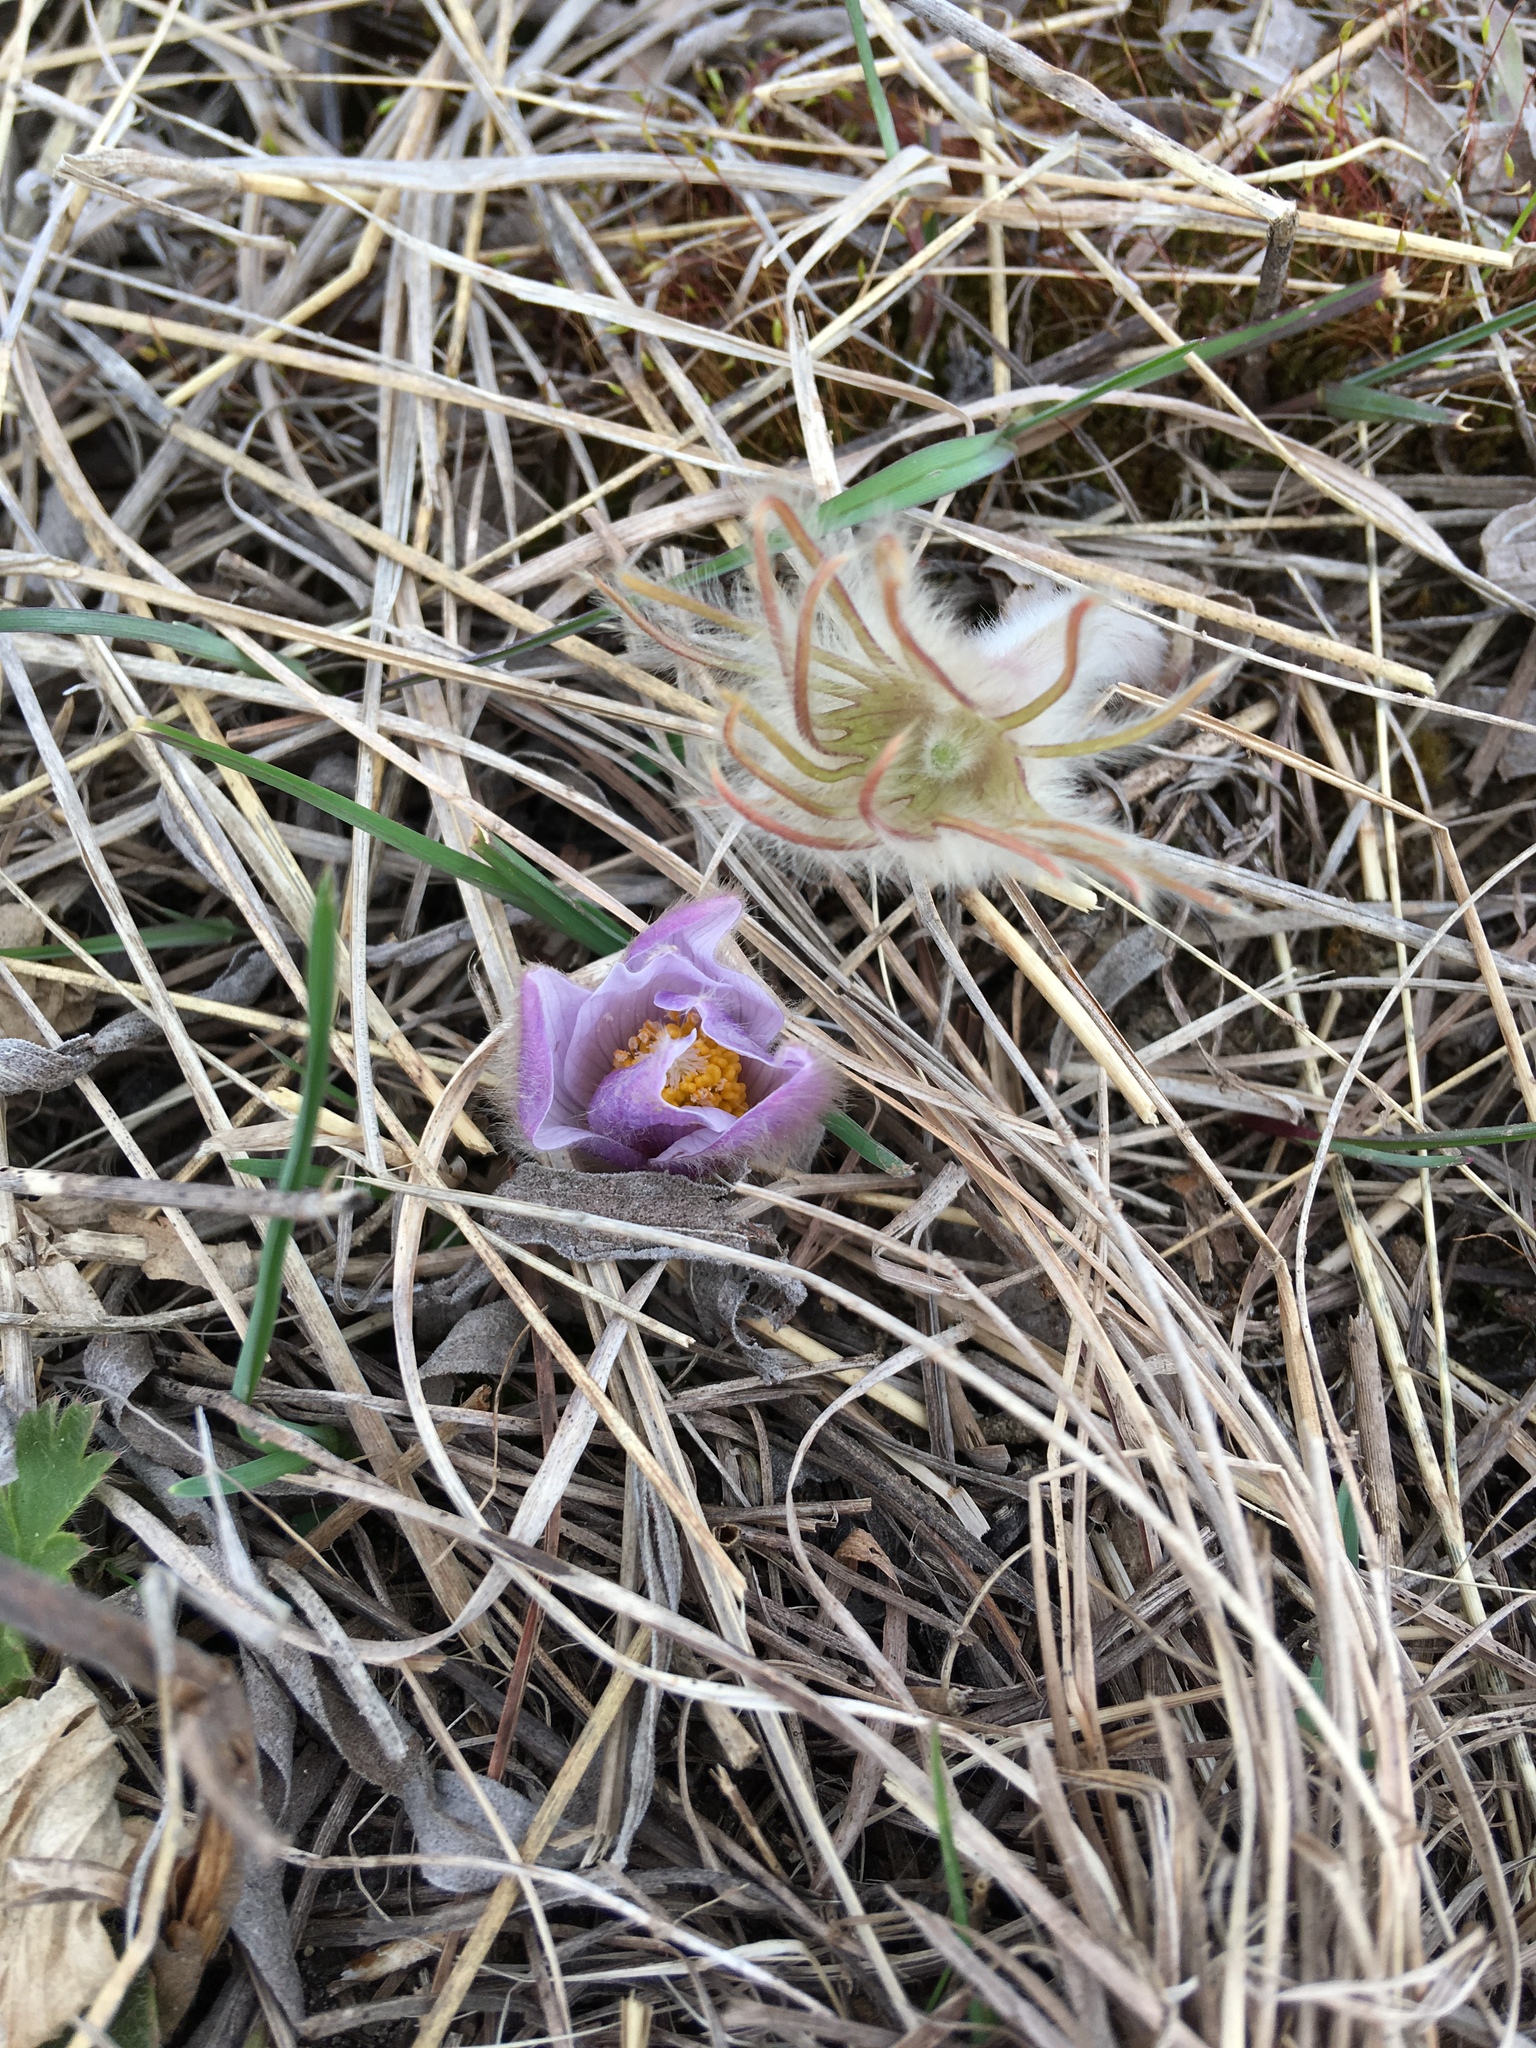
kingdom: Plantae
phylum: Tracheophyta
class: Magnoliopsida
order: Ranunculales
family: Ranunculaceae
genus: Pulsatilla
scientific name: Pulsatilla nuttalliana
